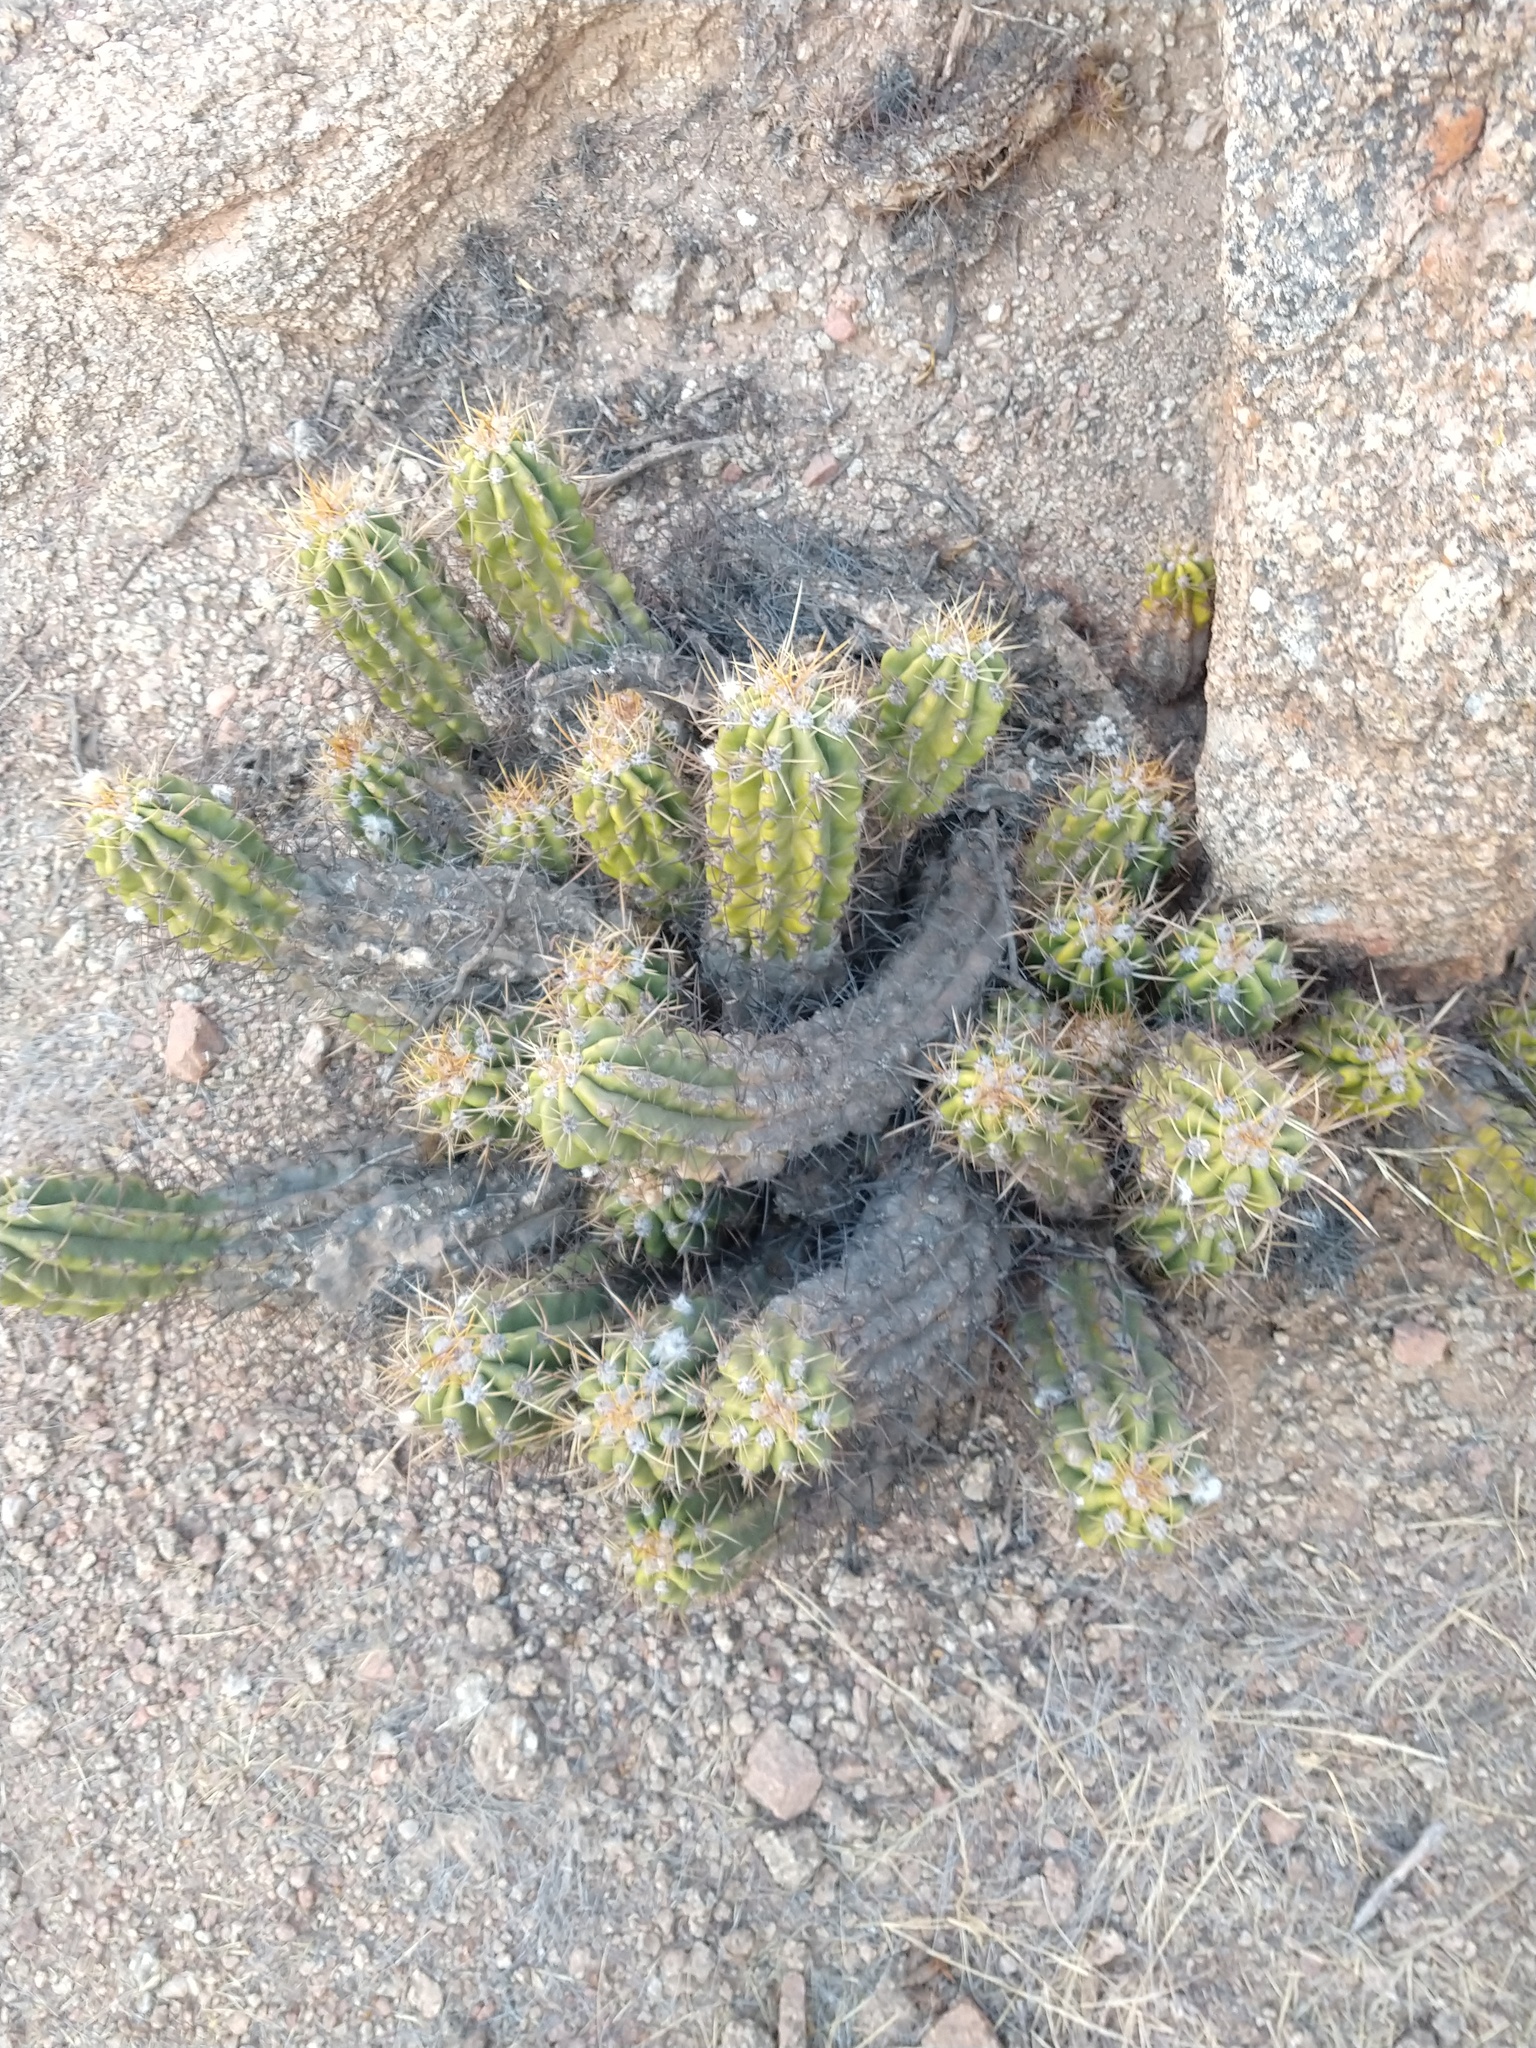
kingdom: Plantae
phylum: Tracheophyta
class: Magnoliopsida
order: Caryophyllales
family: Cactaceae
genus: Soehrensia
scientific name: Soehrensia candicans
